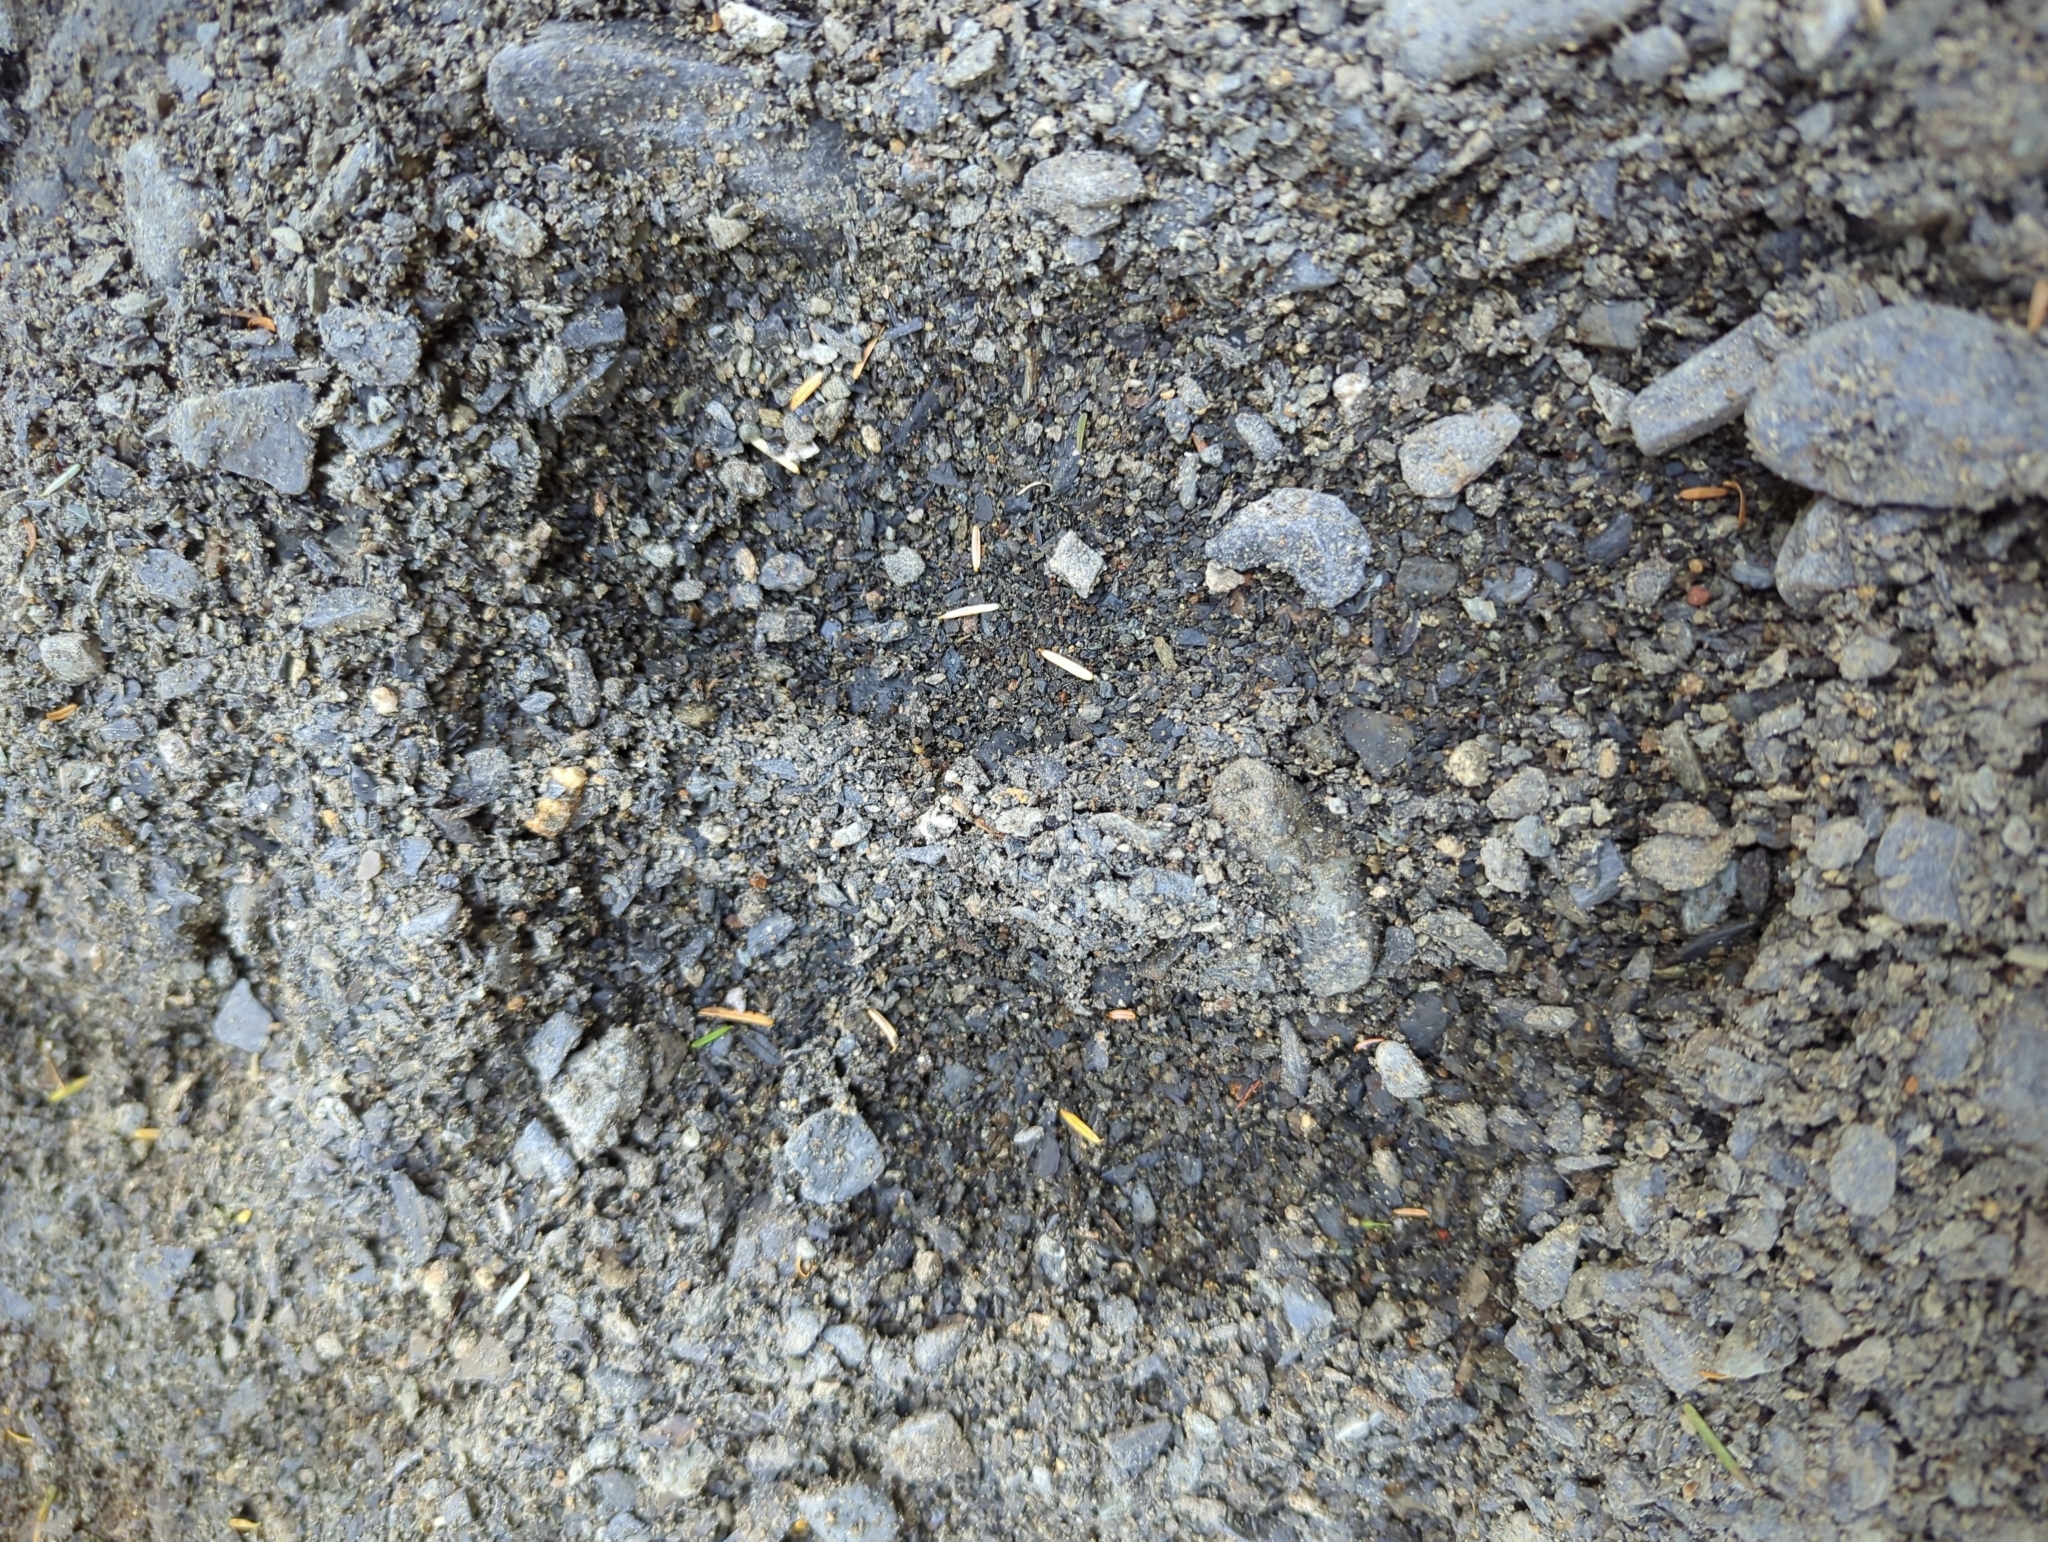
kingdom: Animalia
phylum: Chordata
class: Mammalia
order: Carnivora
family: Ursidae
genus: Ursus
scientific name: Ursus arctos
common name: Brown bear
